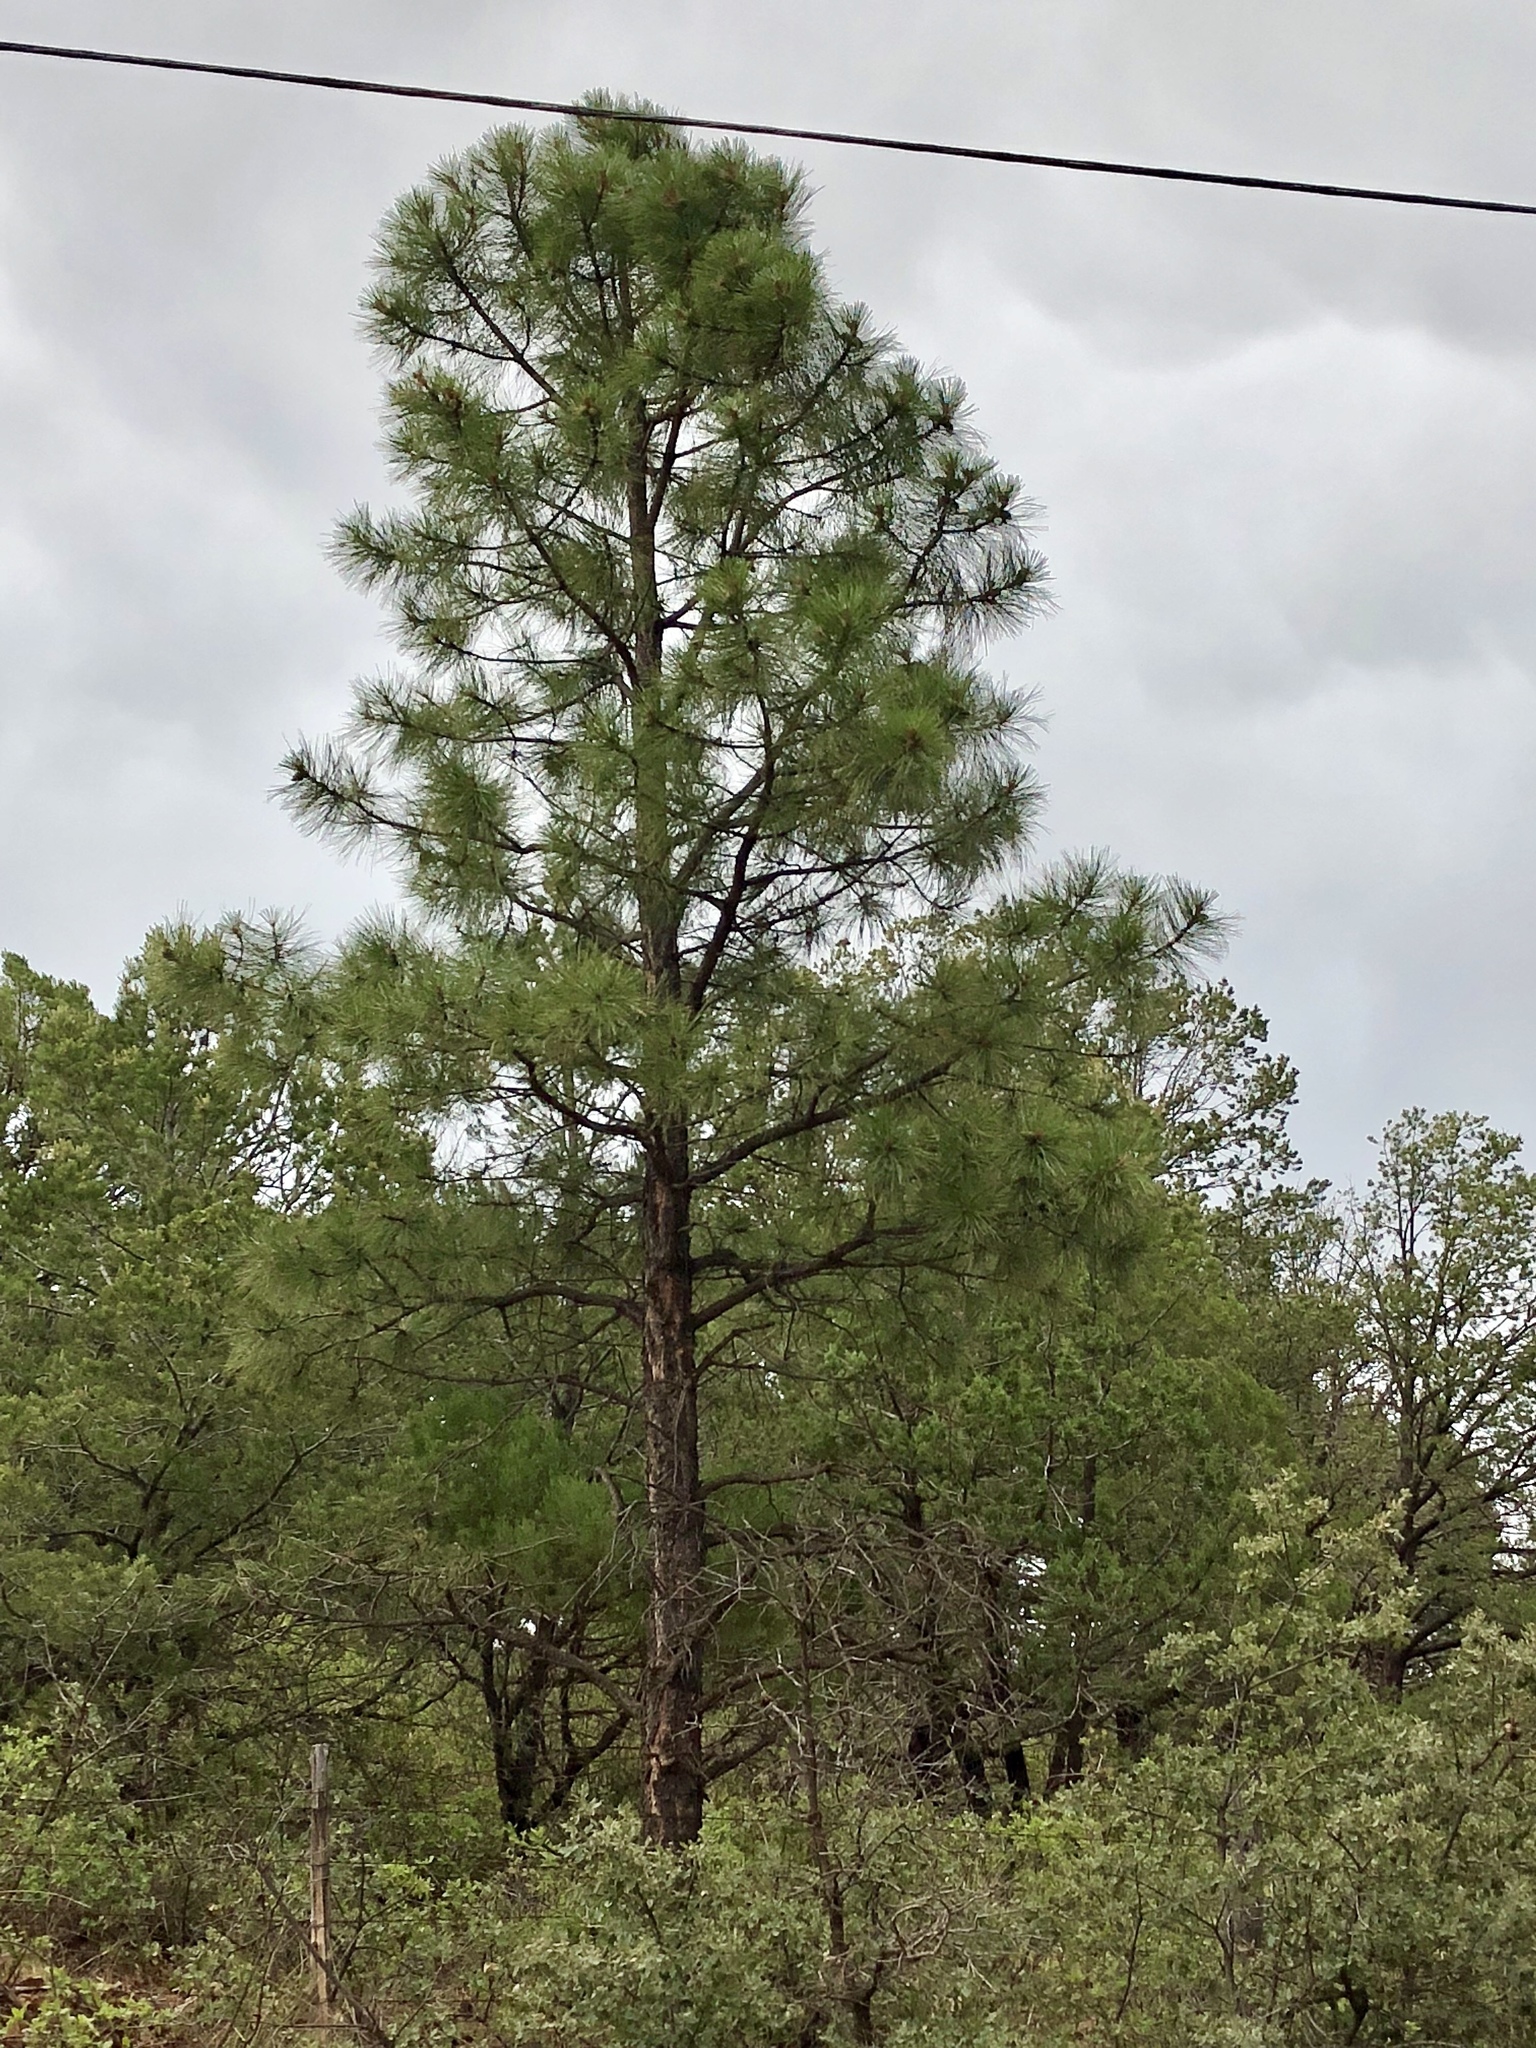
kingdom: Plantae
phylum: Tracheophyta
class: Pinopsida
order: Pinales
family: Pinaceae
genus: Pinus
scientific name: Pinus ponderosa
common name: Western yellow-pine
